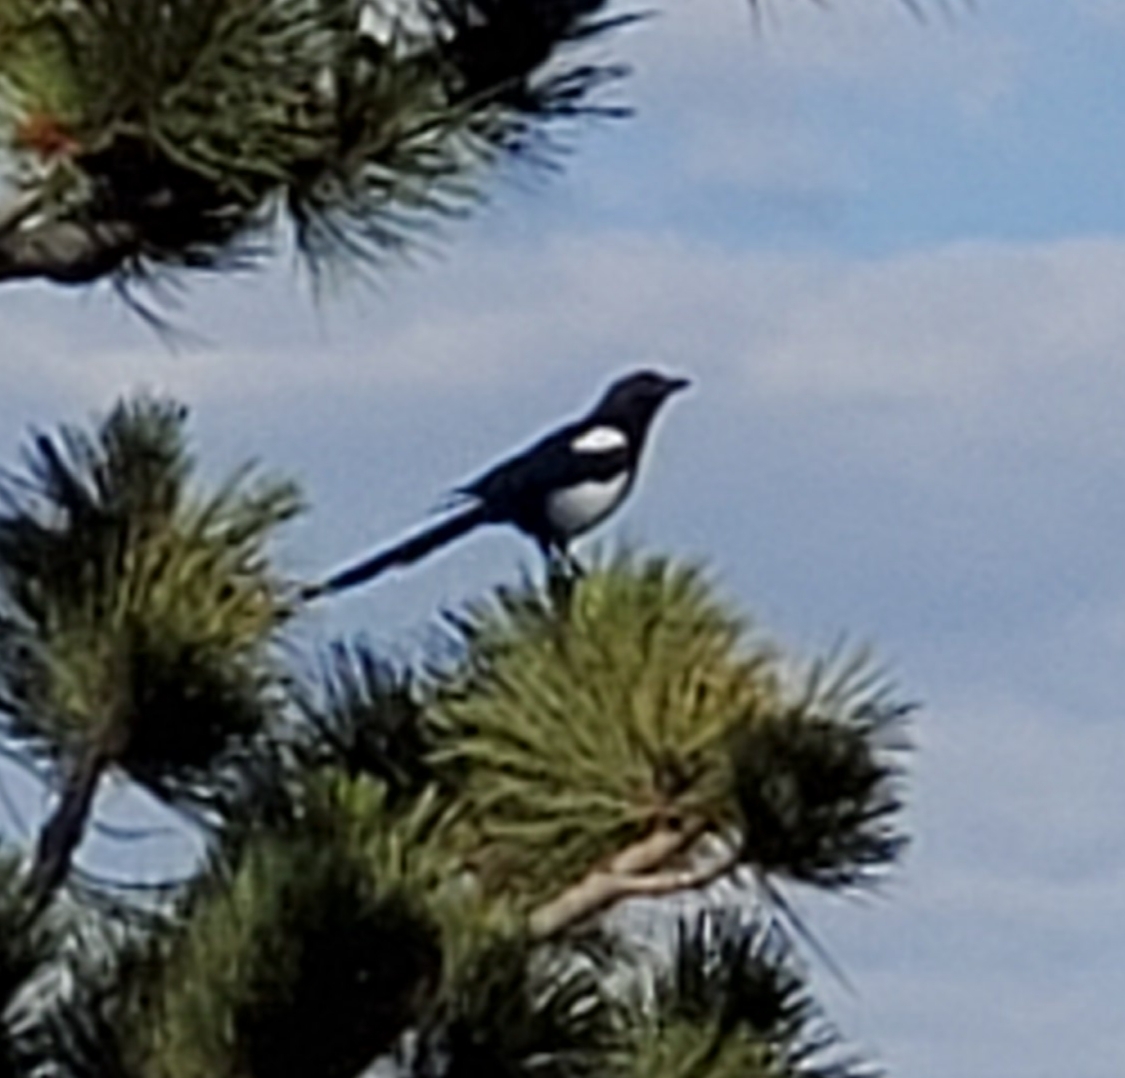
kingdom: Animalia
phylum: Chordata
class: Aves
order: Passeriformes
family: Corvidae
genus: Pica
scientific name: Pica hudsonia
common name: Black-billed magpie
